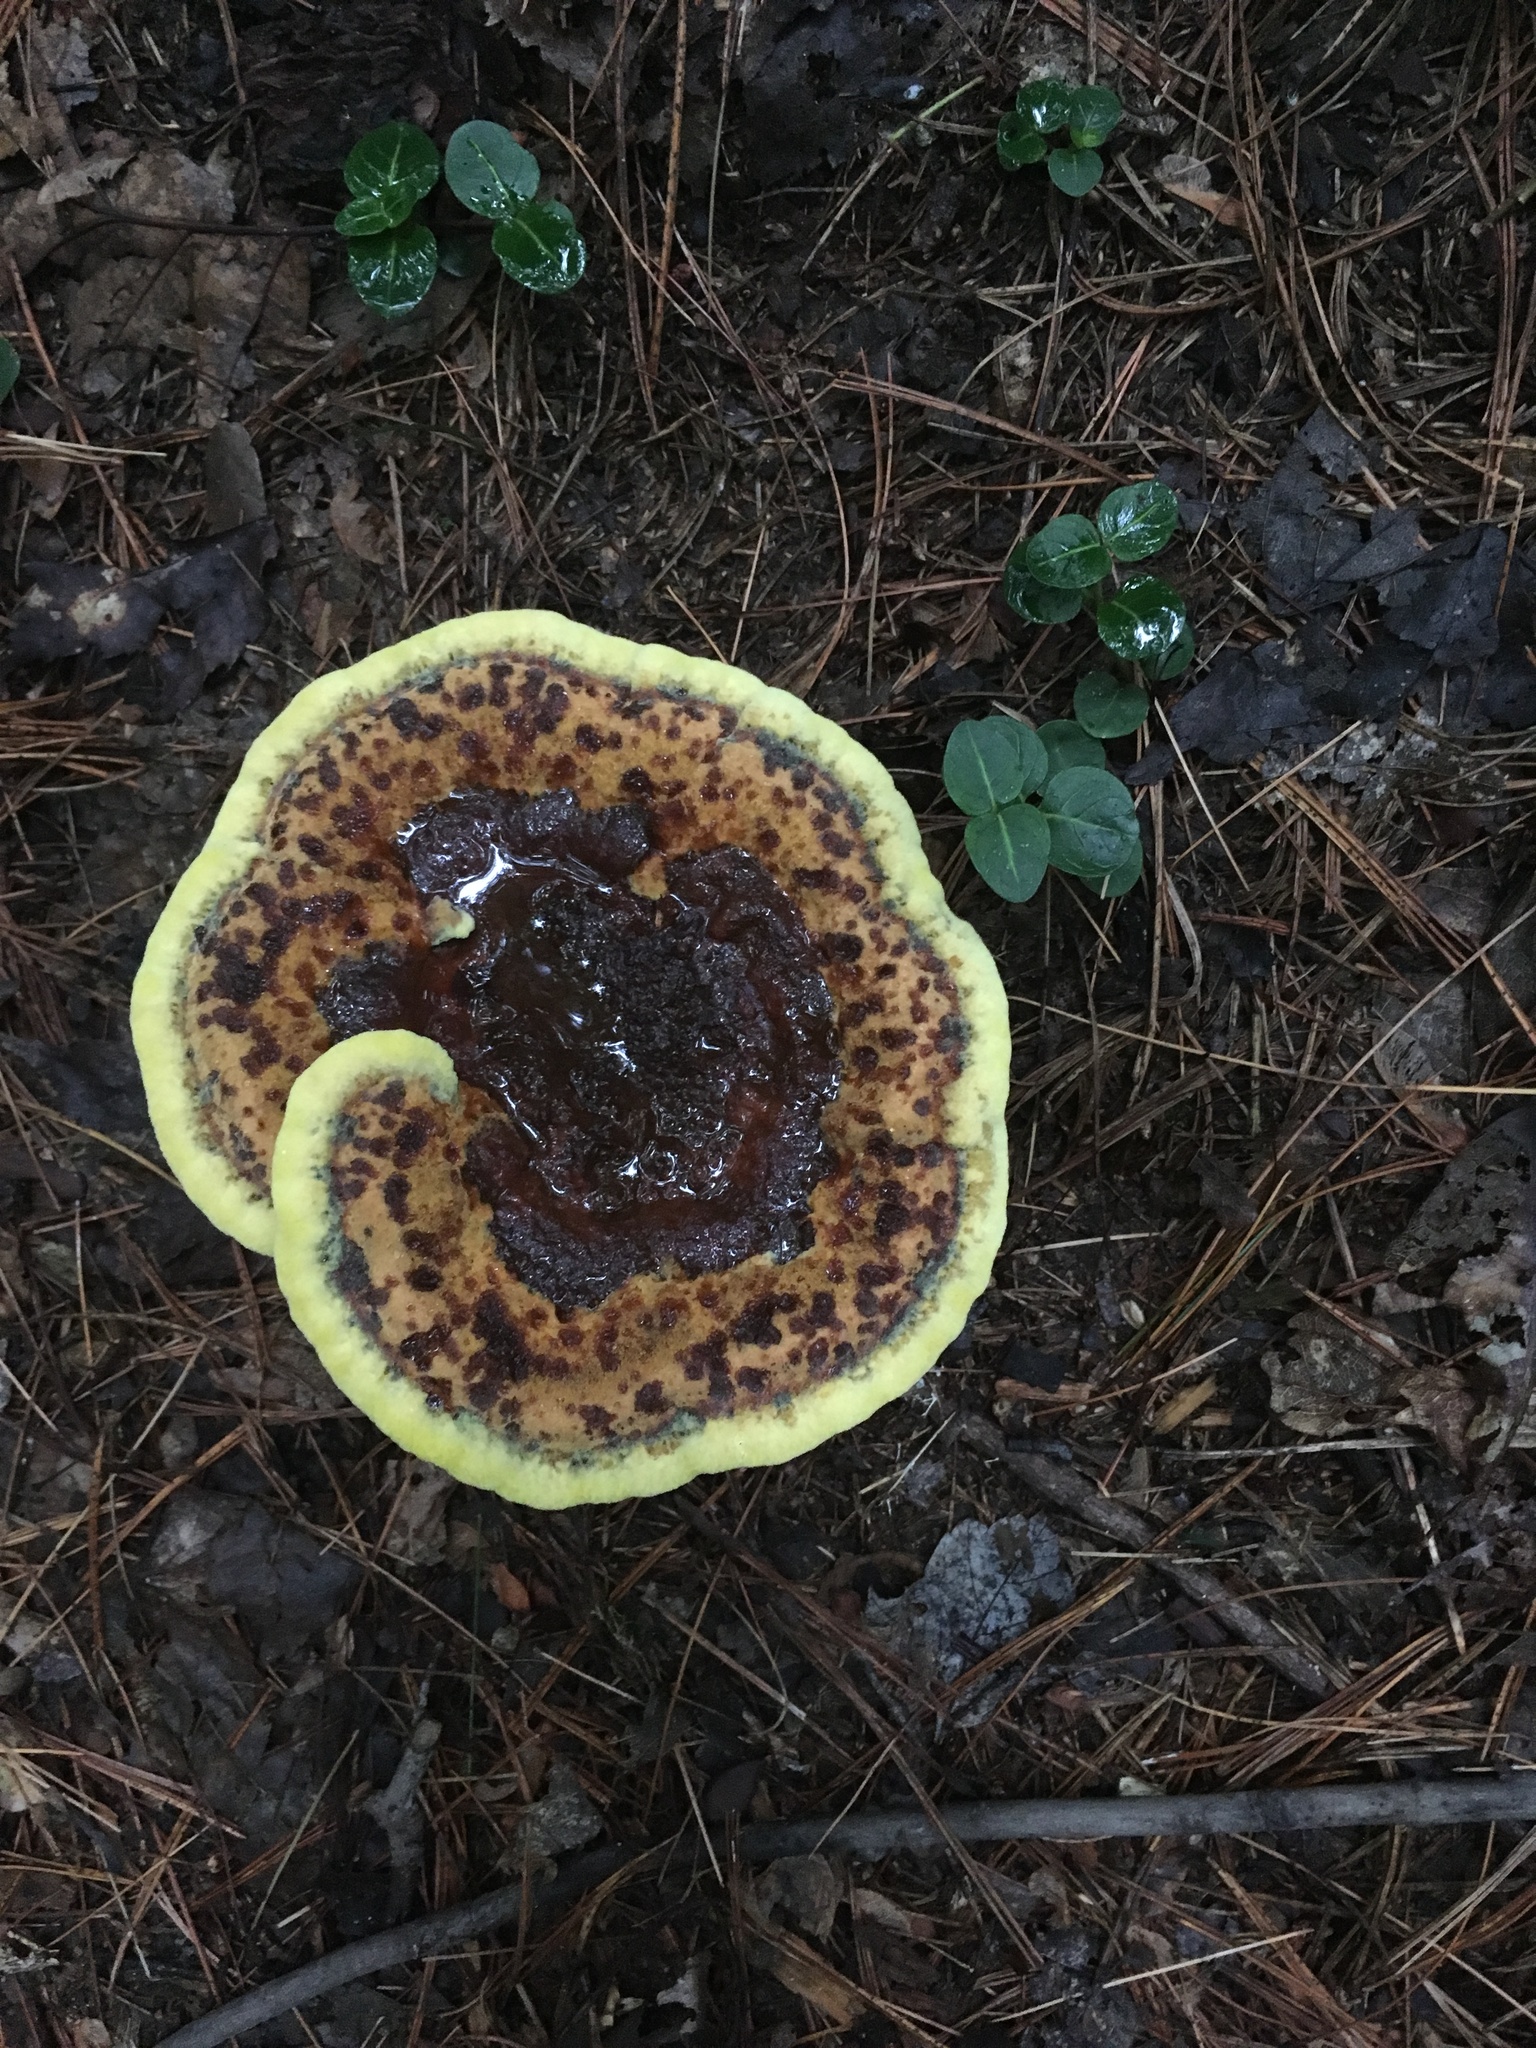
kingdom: Fungi
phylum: Basidiomycota
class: Agaricomycetes
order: Polyporales
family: Laetiporaceae
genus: Phaeolus
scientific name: Phaeolus schweinitzii
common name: Dyer's mazegill
